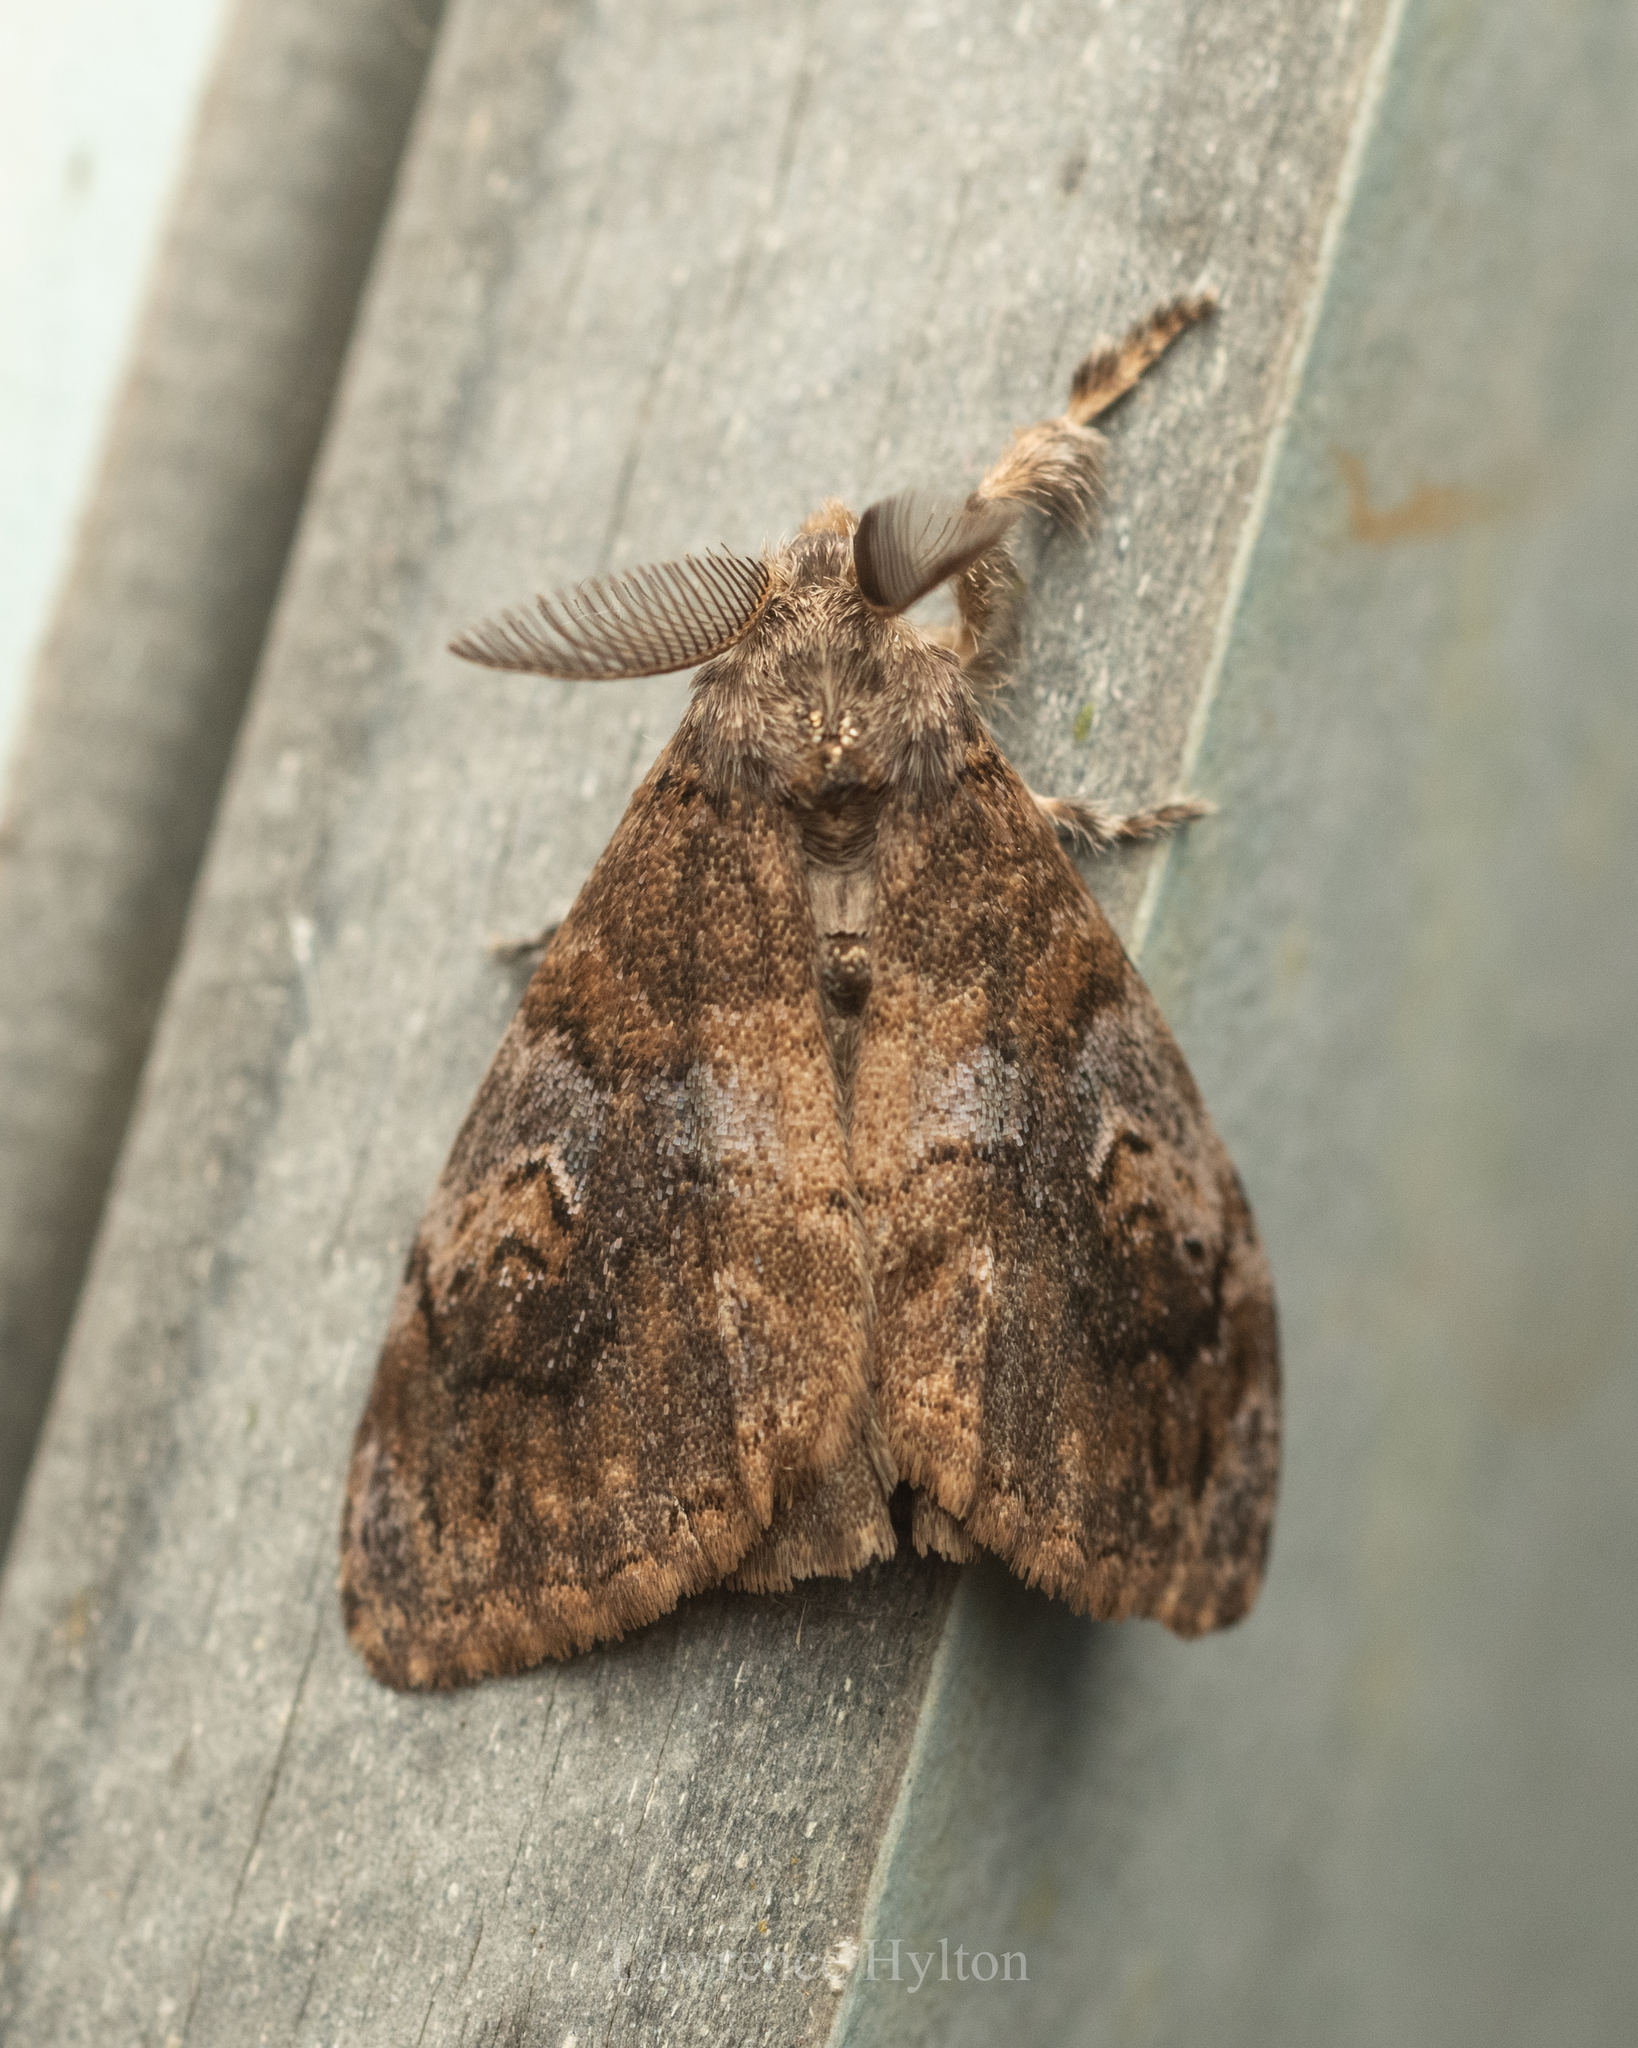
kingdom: Animalia
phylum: Arthropoda
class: Insecta
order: Lepidoptera
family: Erebidae
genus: Orgyia
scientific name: Orgyia postica
